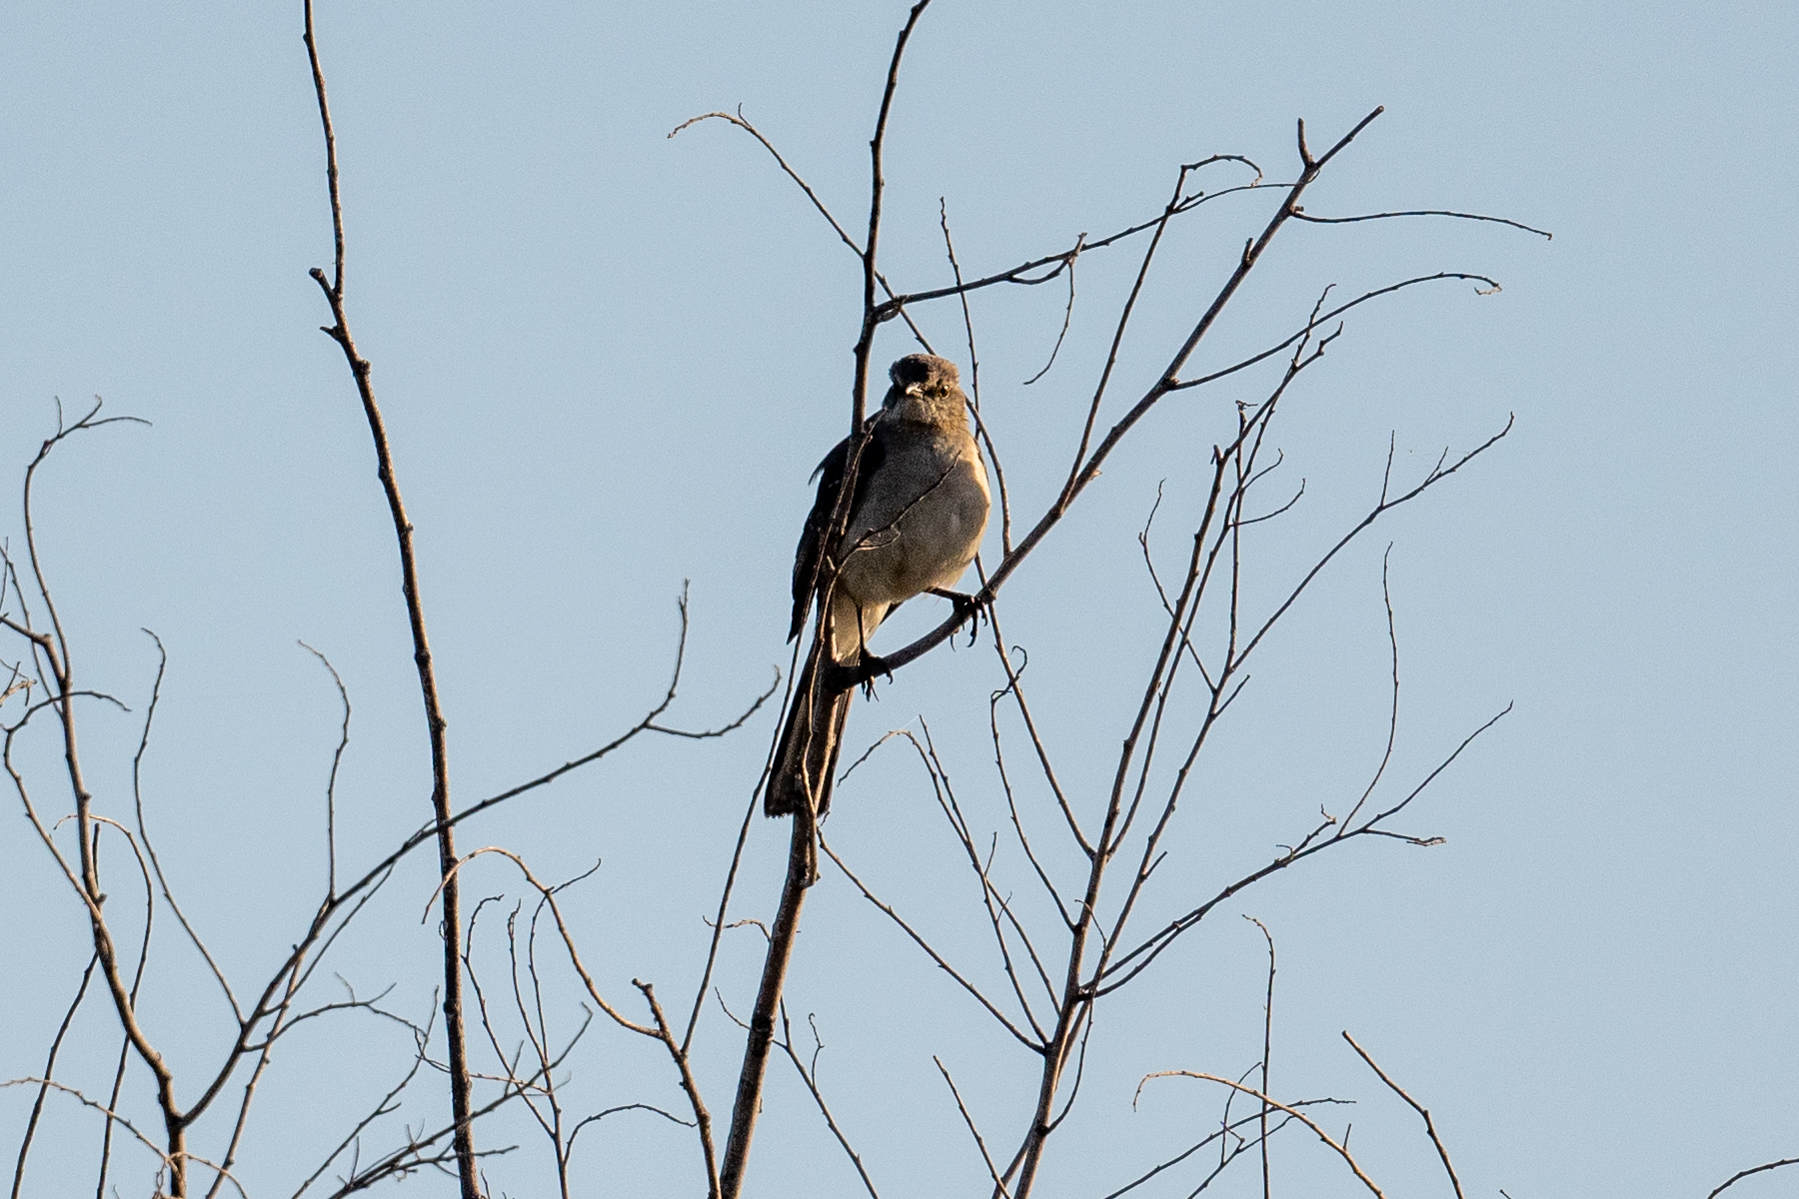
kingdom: Animalia
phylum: Chordata
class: Aves
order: Passeriformes
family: Mimidae
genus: Mimus
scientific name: Mimus polyglottos
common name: Northern mockingbird
